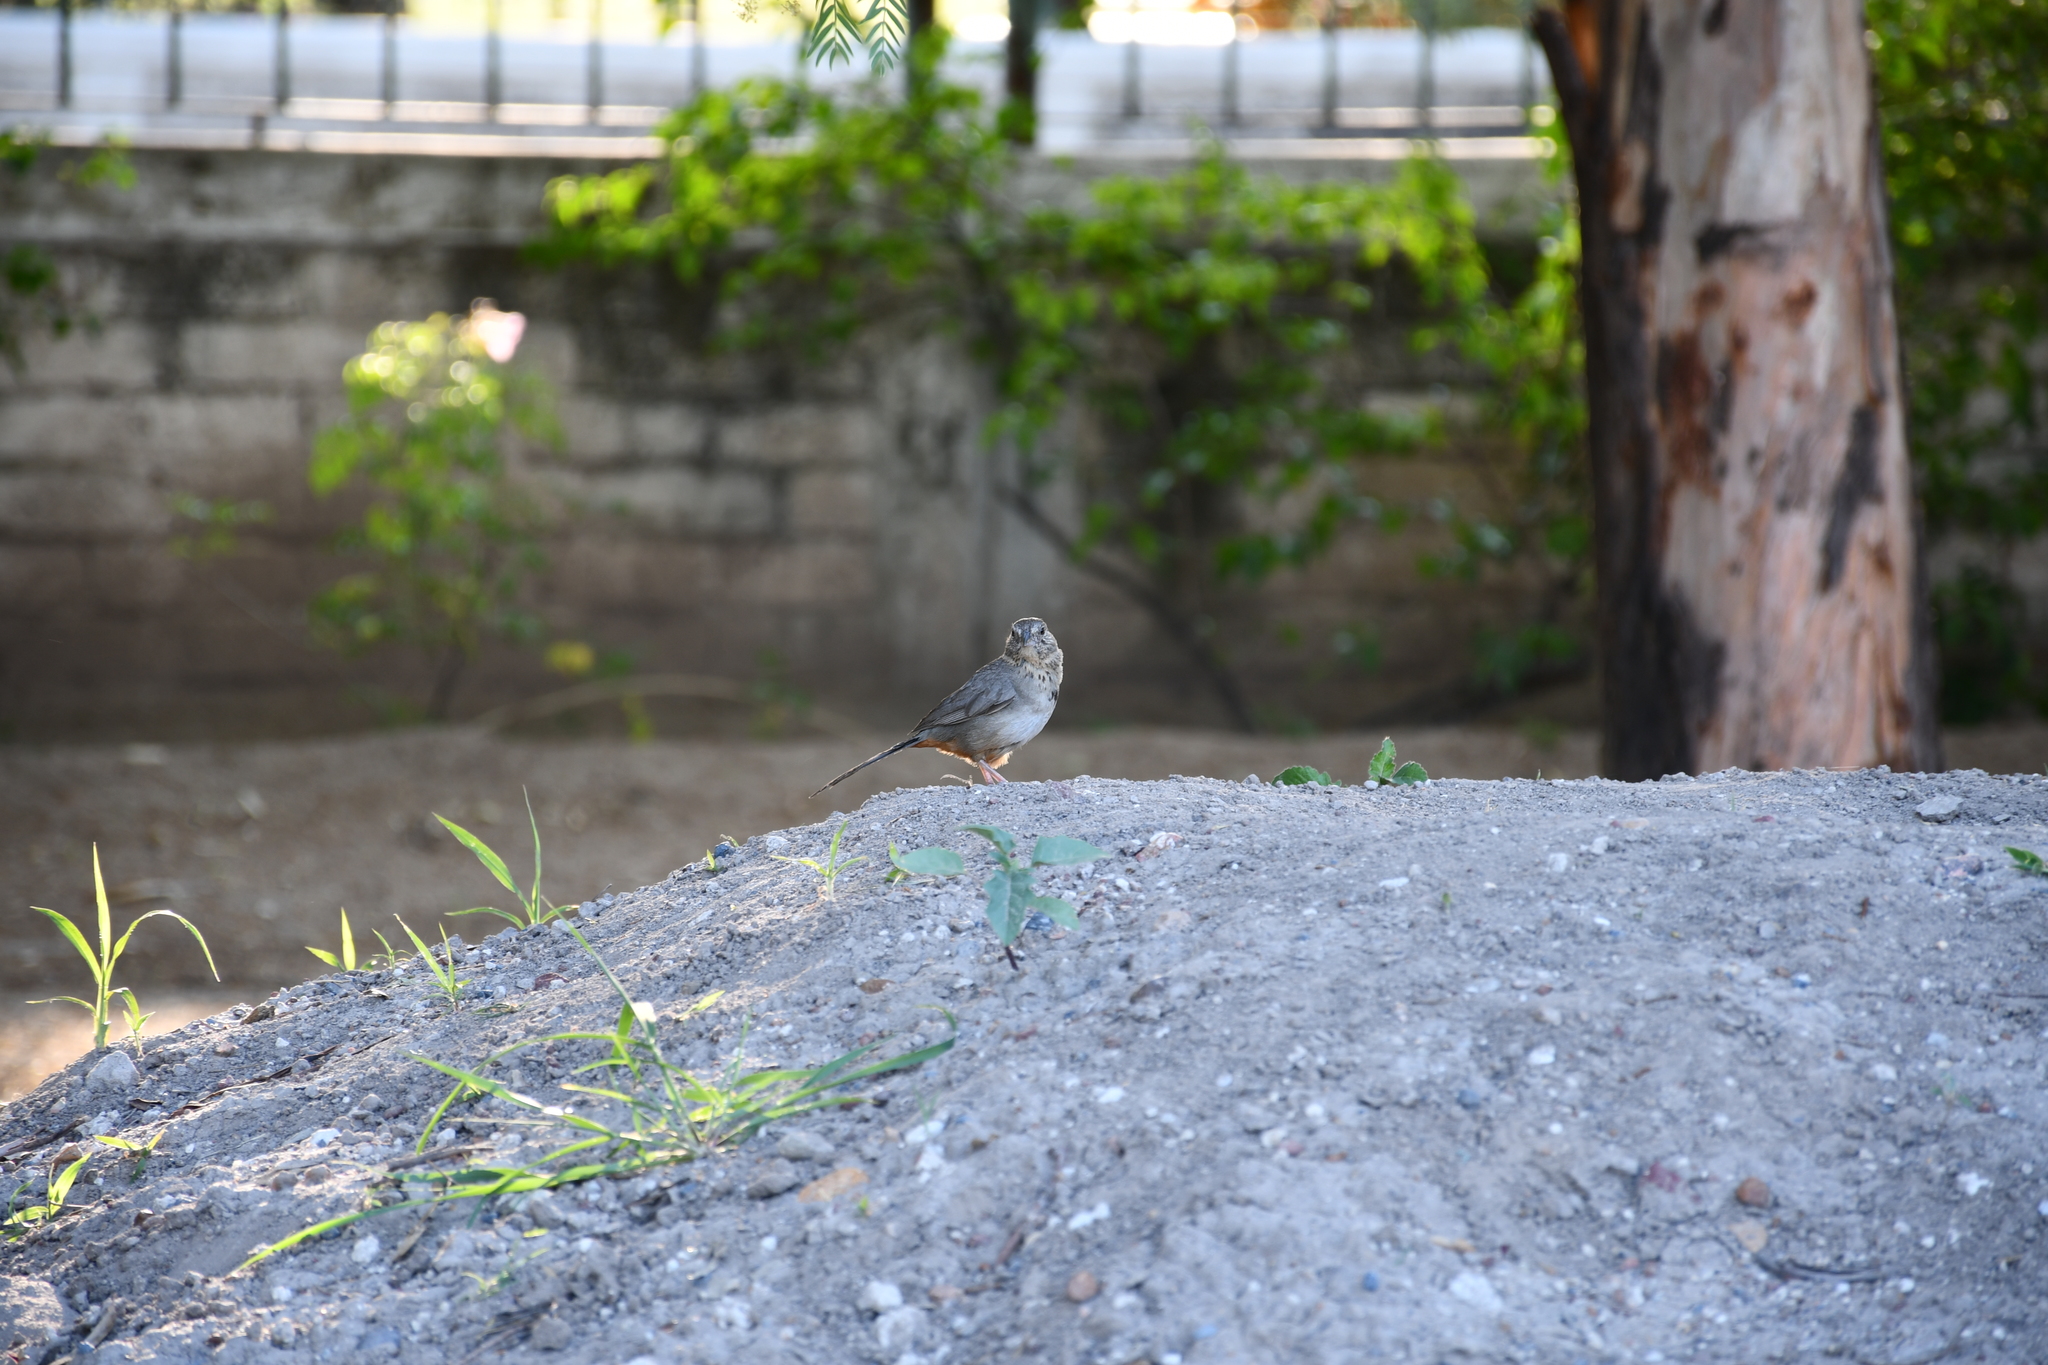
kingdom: Animalia
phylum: Chordata
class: Aves
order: Passeriformes
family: Passerellidae
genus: Melozone
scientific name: Melozone fusca
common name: Canyon towhee
